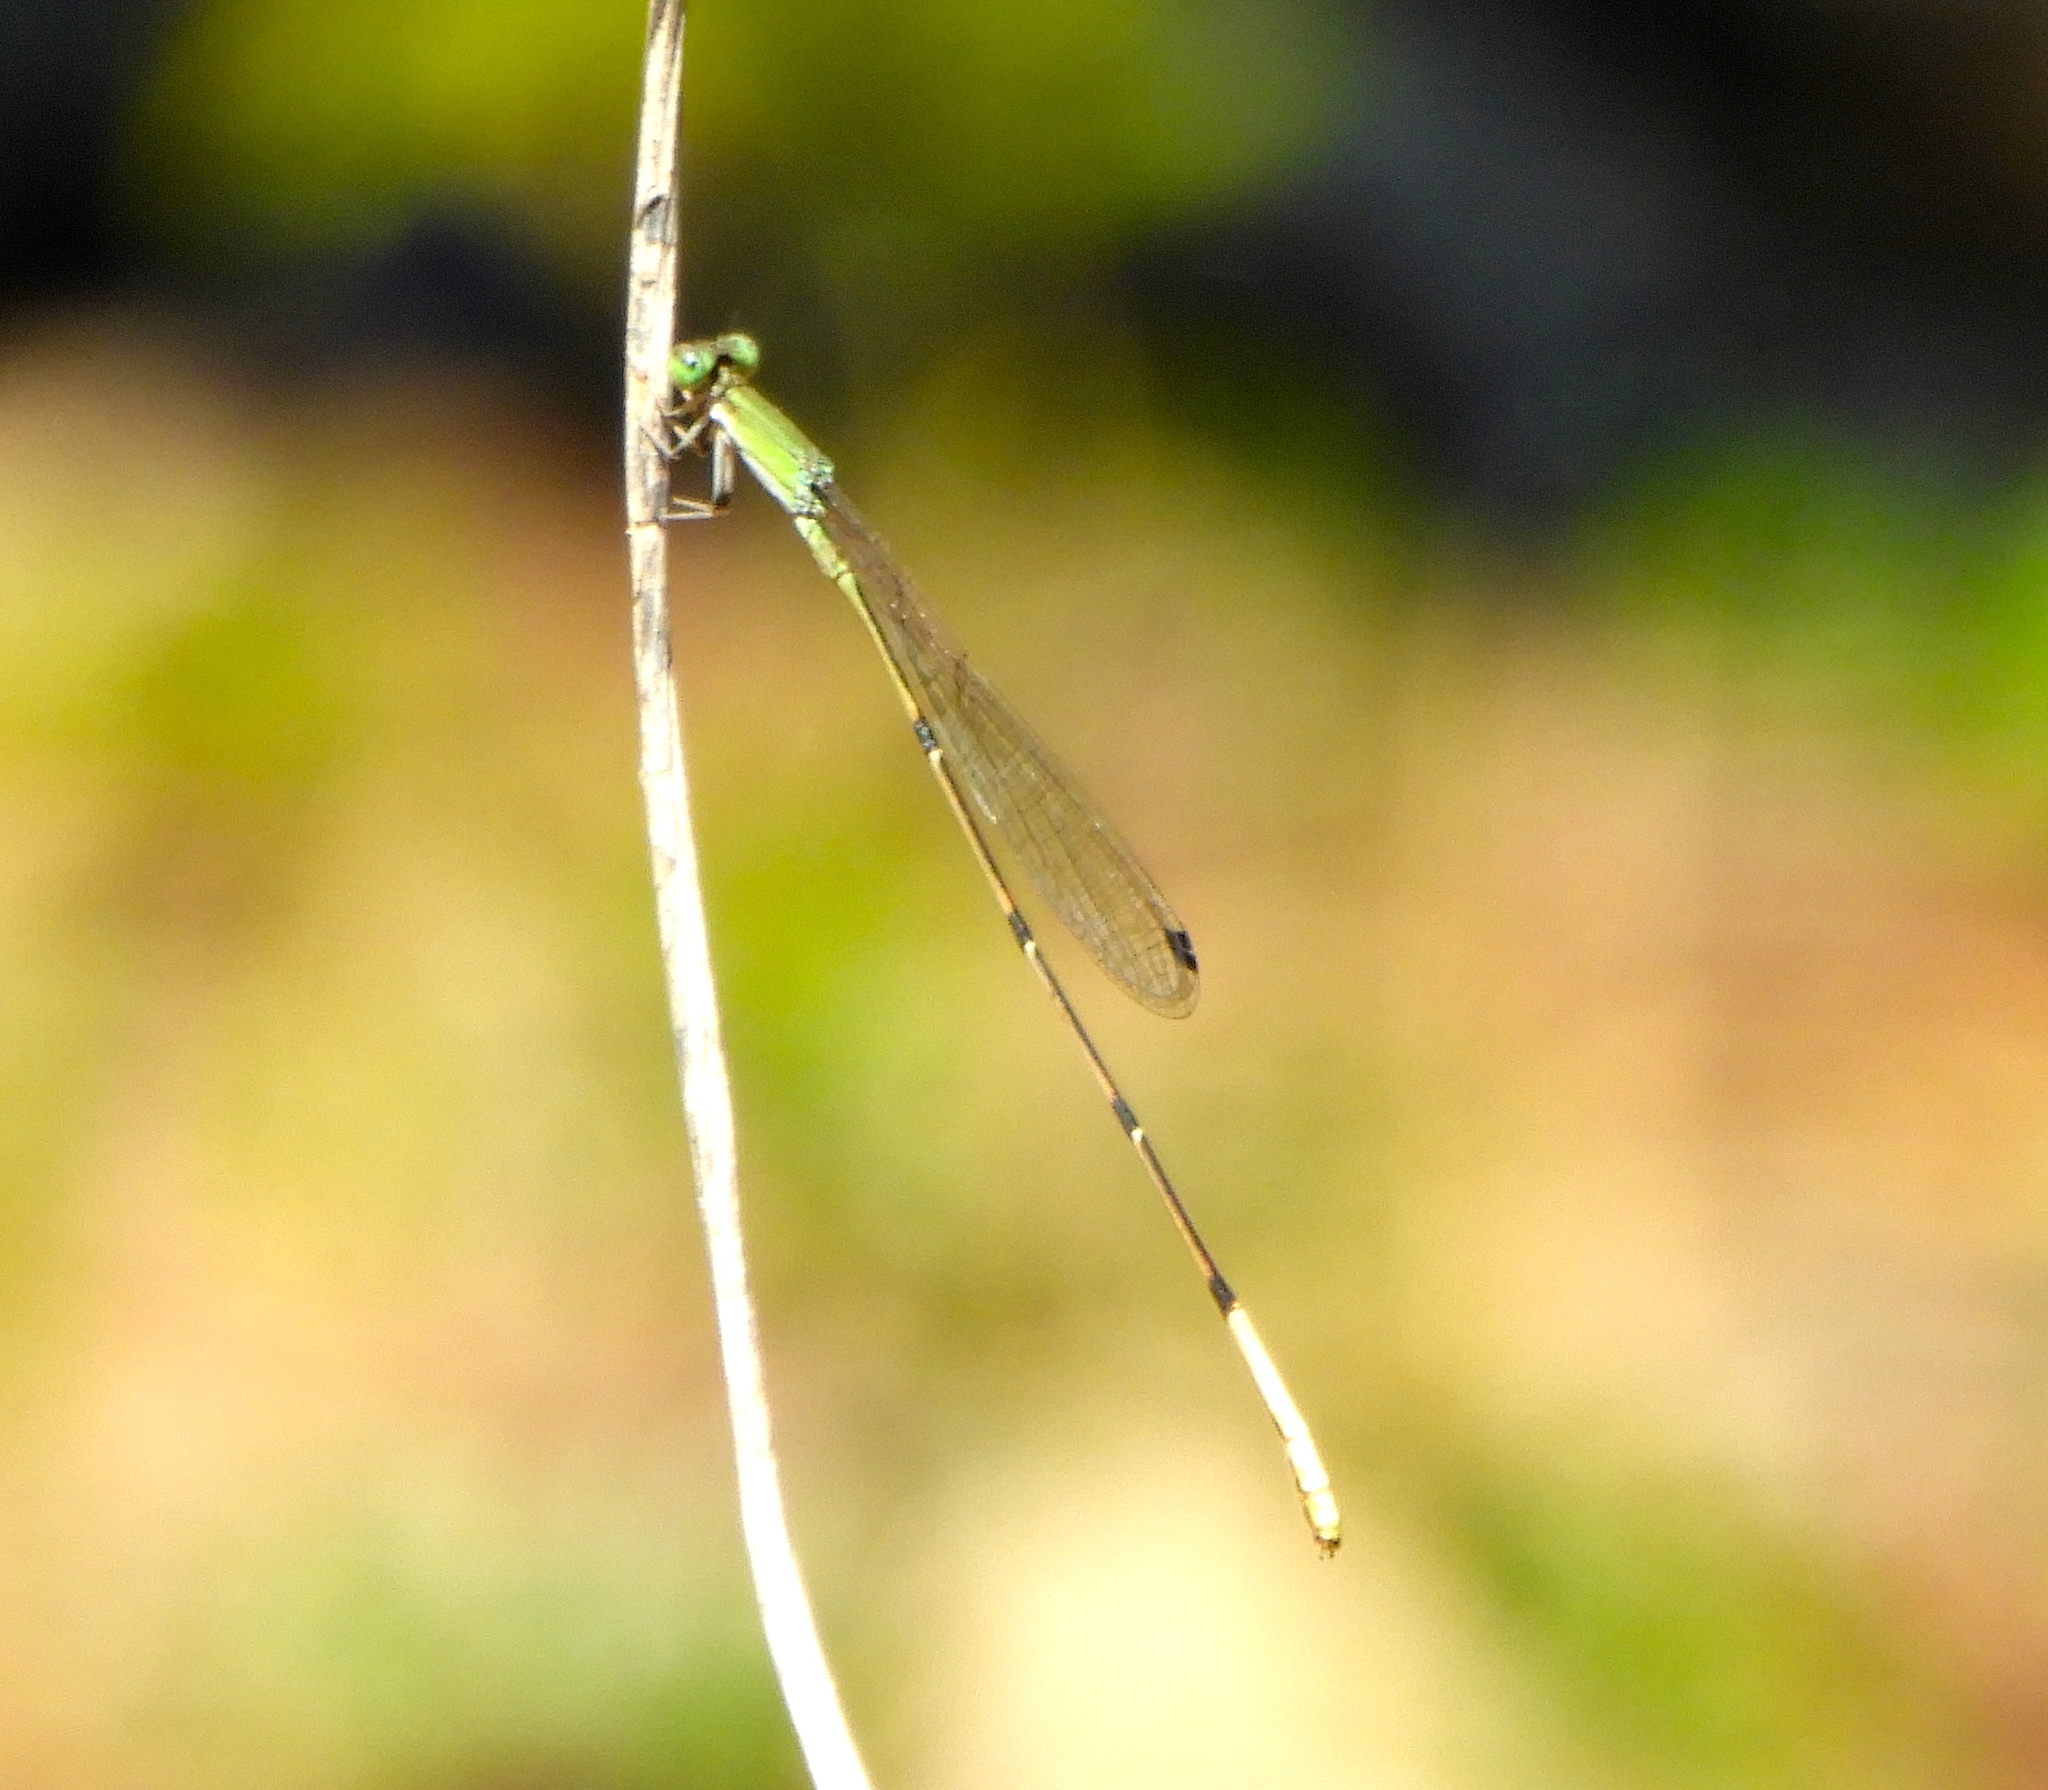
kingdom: Animalia
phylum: Arthropoda
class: Insecta
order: Odonata
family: Coenagrionidae
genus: Leptobasis
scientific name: Leptobasis melinogaster
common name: Cream-tipped swampdamsel
